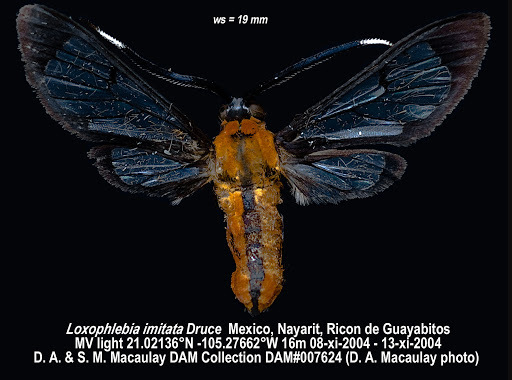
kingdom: Animalia
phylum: Arthropoda
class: Insecta
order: Lepidoptera
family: Erebidae
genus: Loxophlebia
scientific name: Loxophlebia imitata
